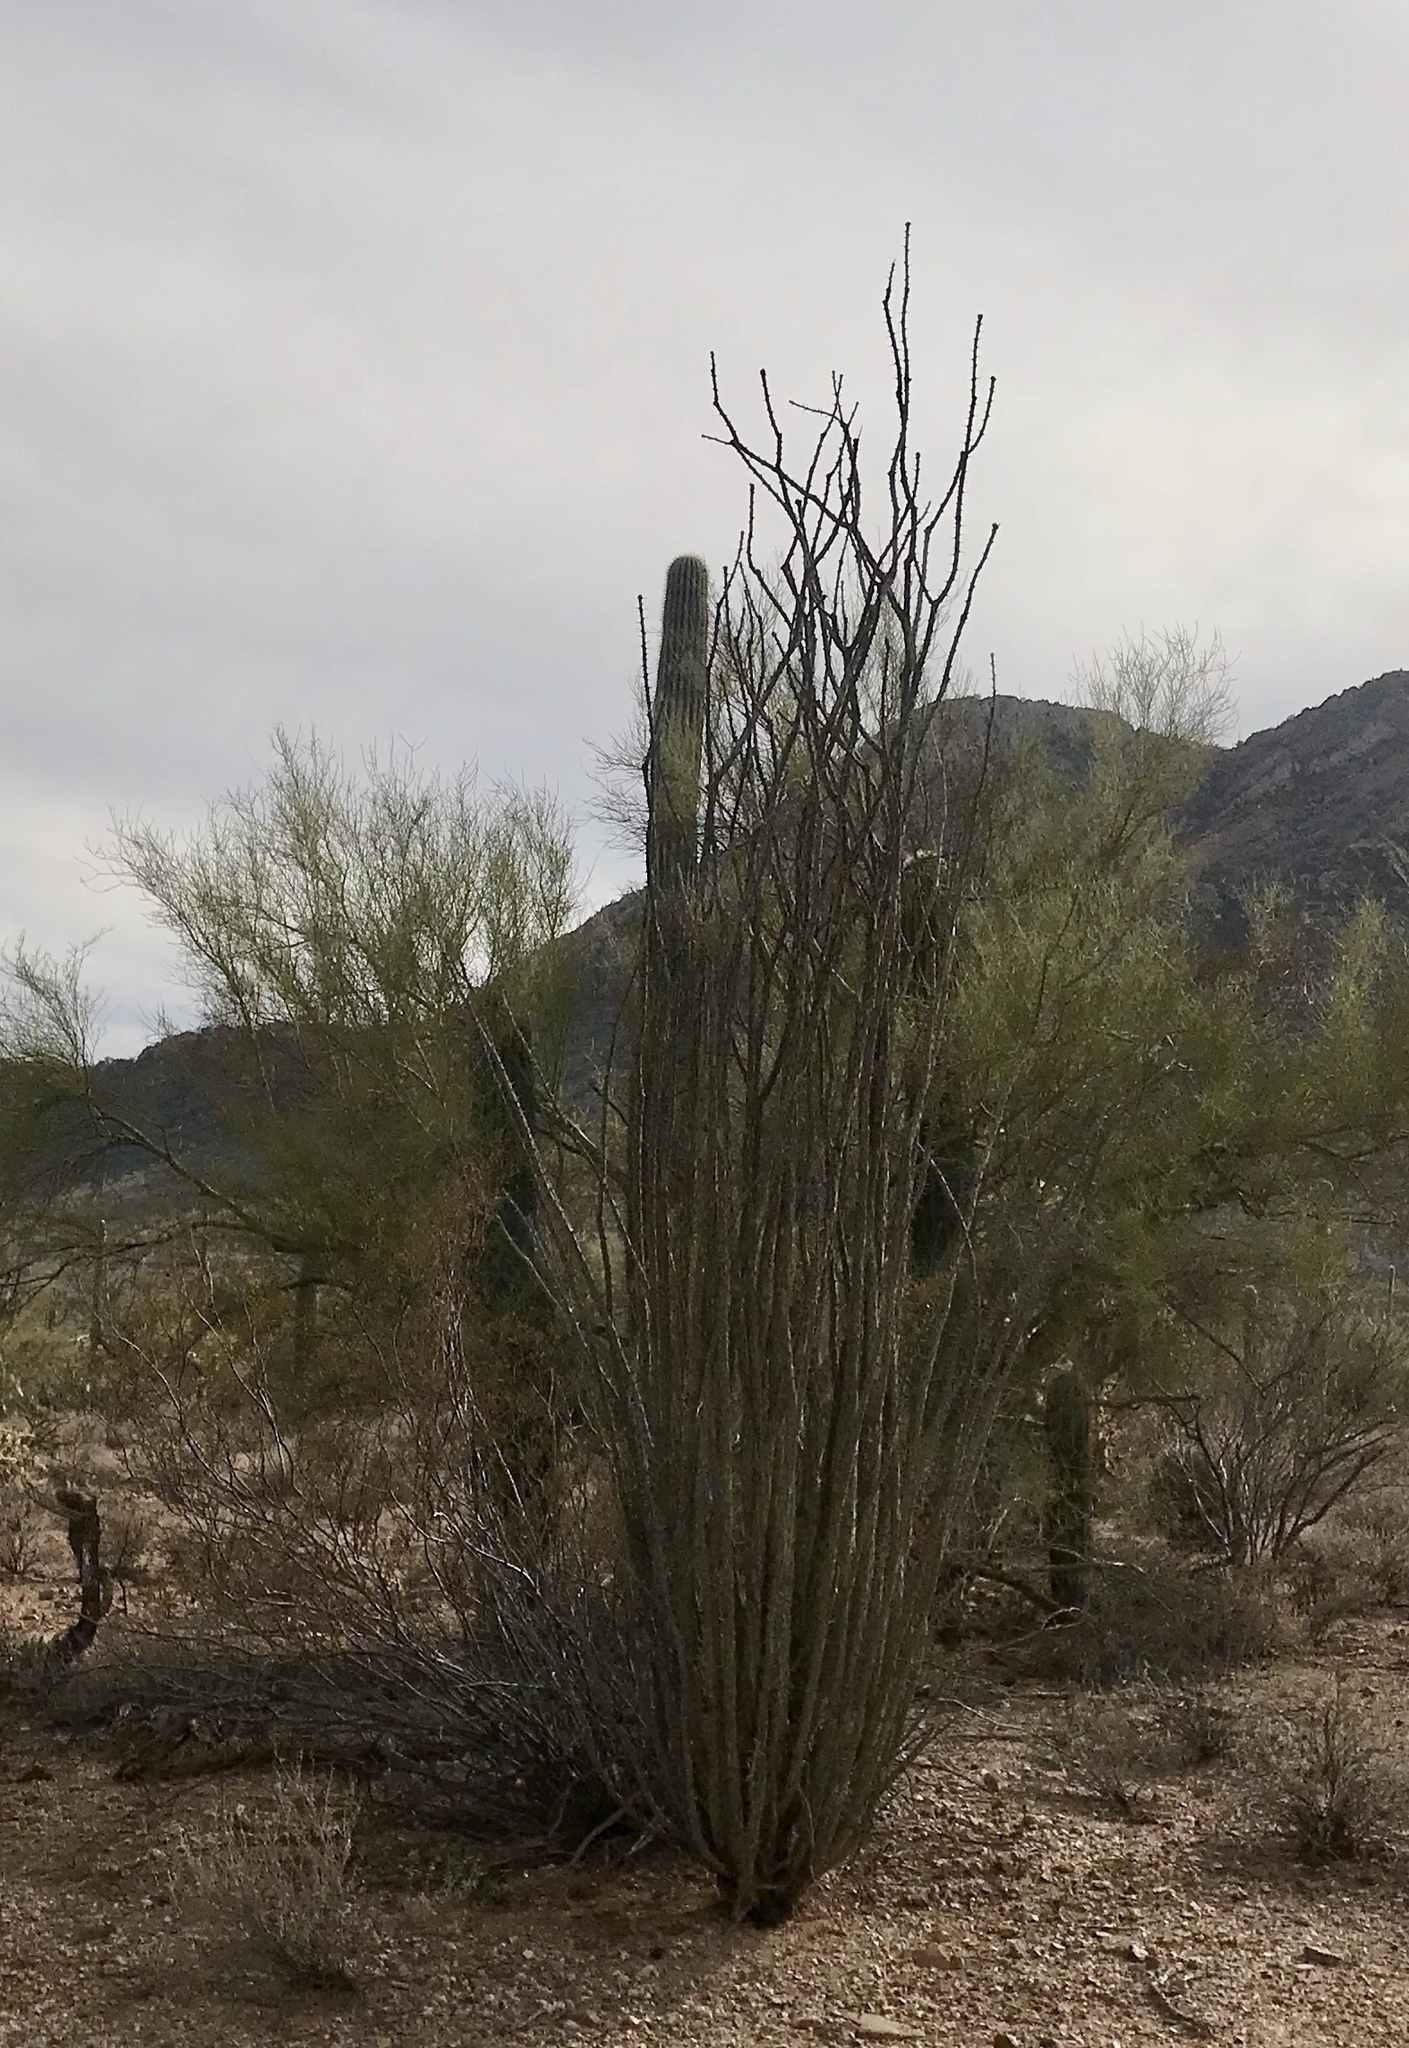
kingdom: Plantae
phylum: Tracheophyta
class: Magnoliopsida
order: Ericales
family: Fouquieriaceae
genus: Fouquieria
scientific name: Fouquieria splendens
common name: Vine-cactus
